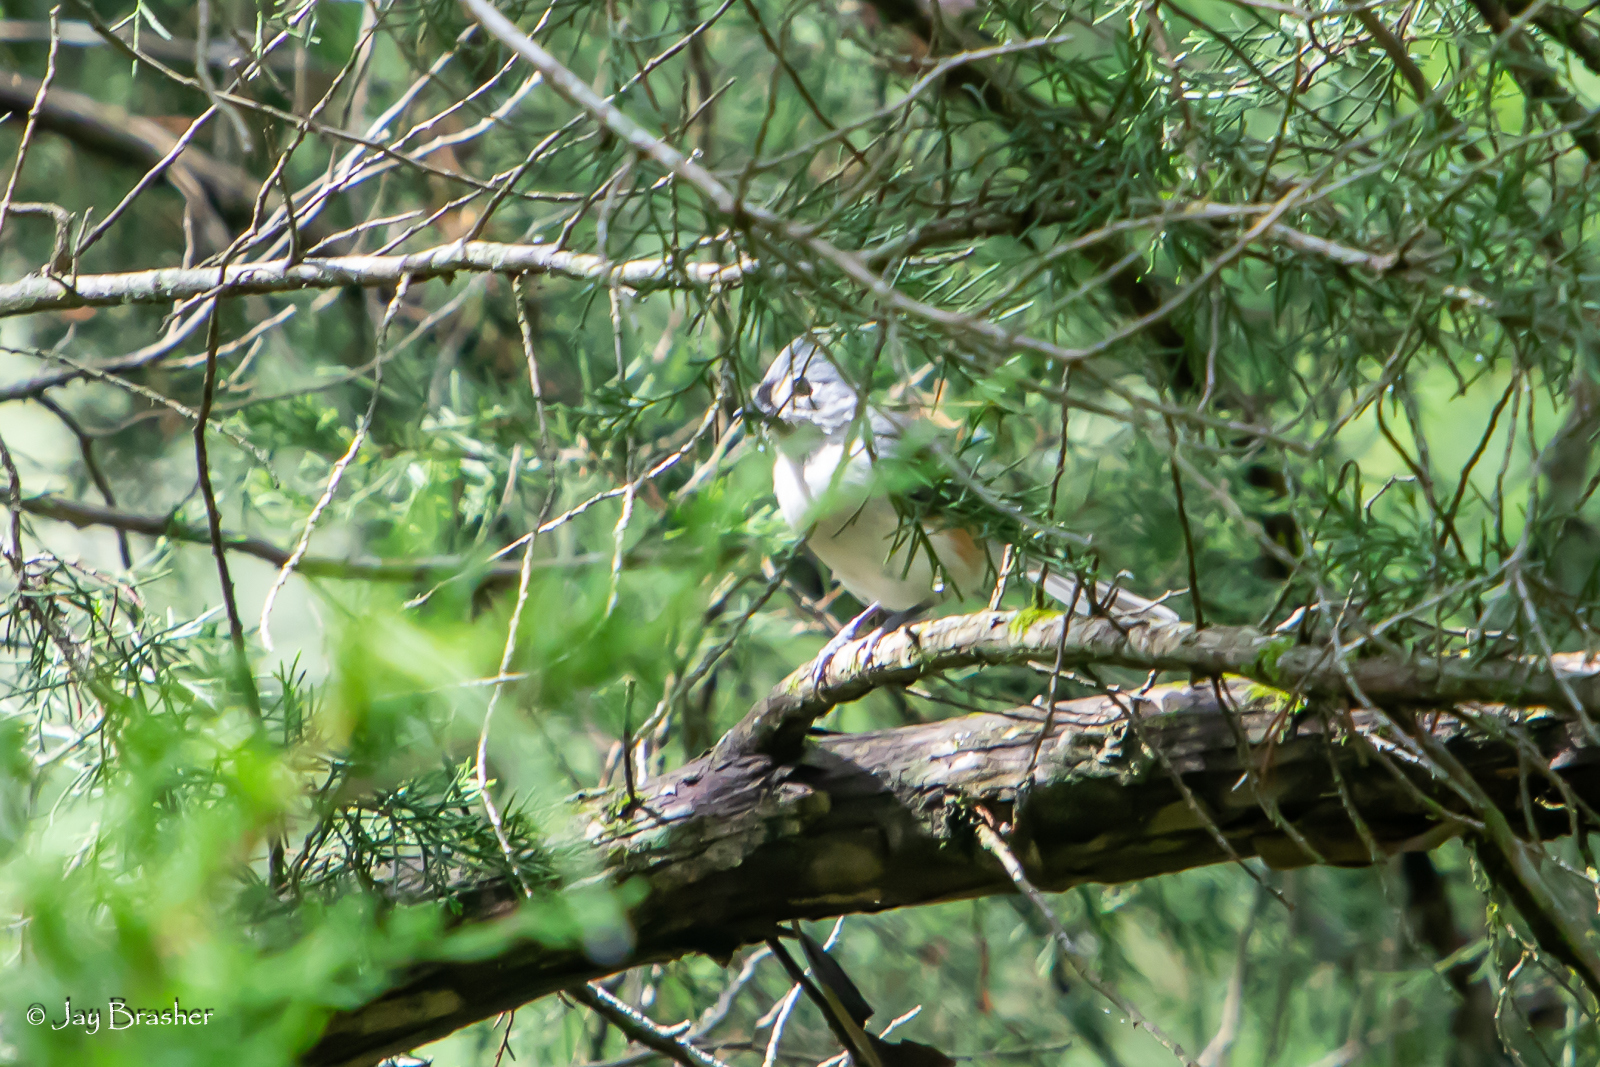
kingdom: Animalia
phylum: Chordata
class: Aves
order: Passeriformes
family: Paridae
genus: Baeolophus
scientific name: Baeolophus bicolor
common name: Tufted titmouse
